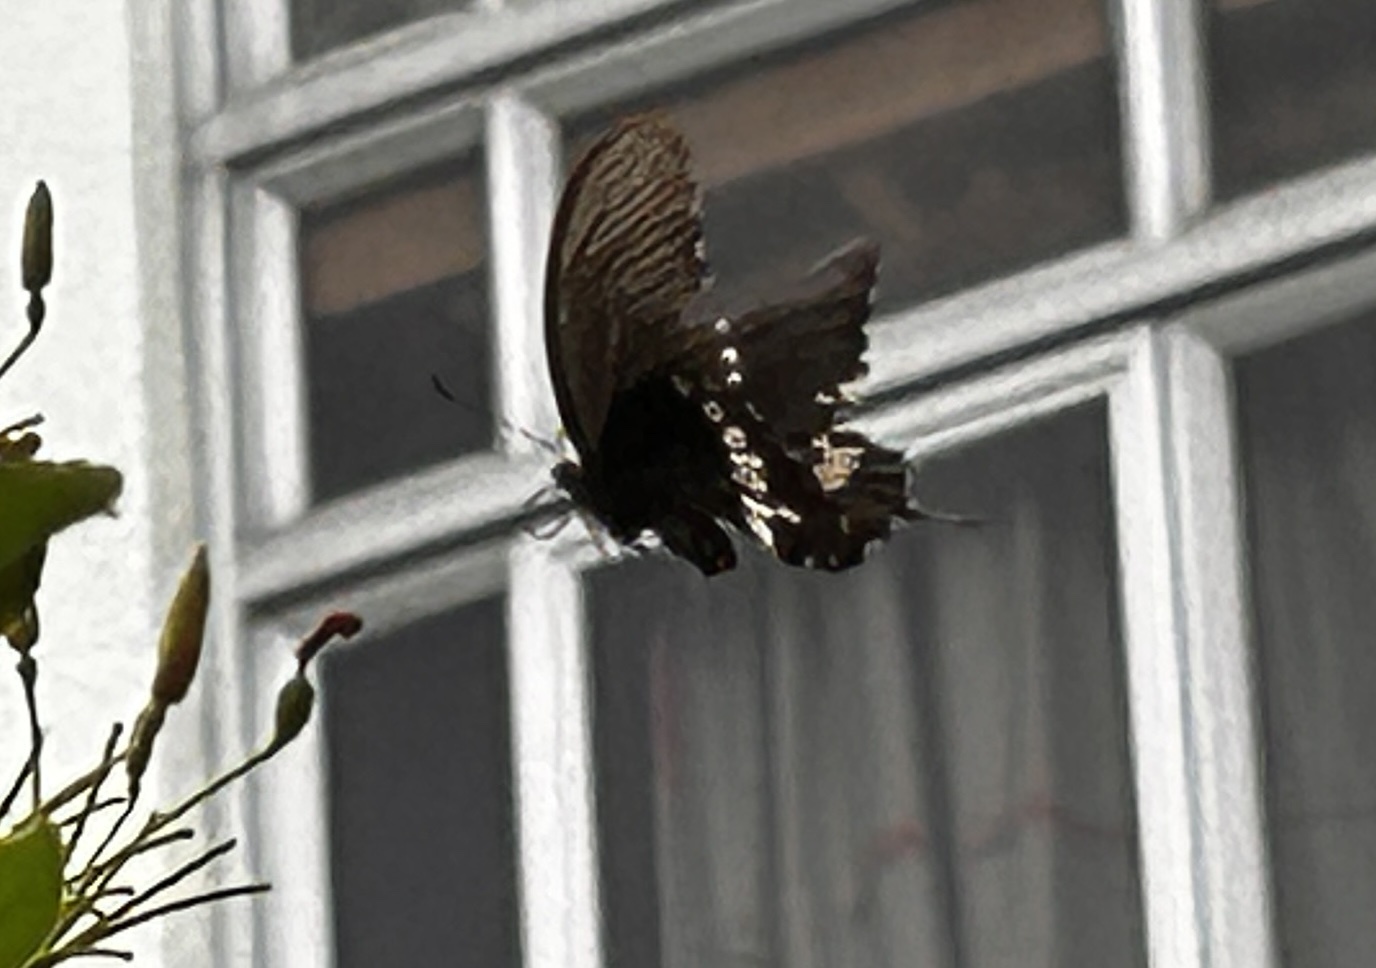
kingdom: Animalia
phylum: Arthropoda
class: Insecta
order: Lepidoptera
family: Papilionidae
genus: Papilio
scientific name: Papilio polytes
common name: Common mormon
